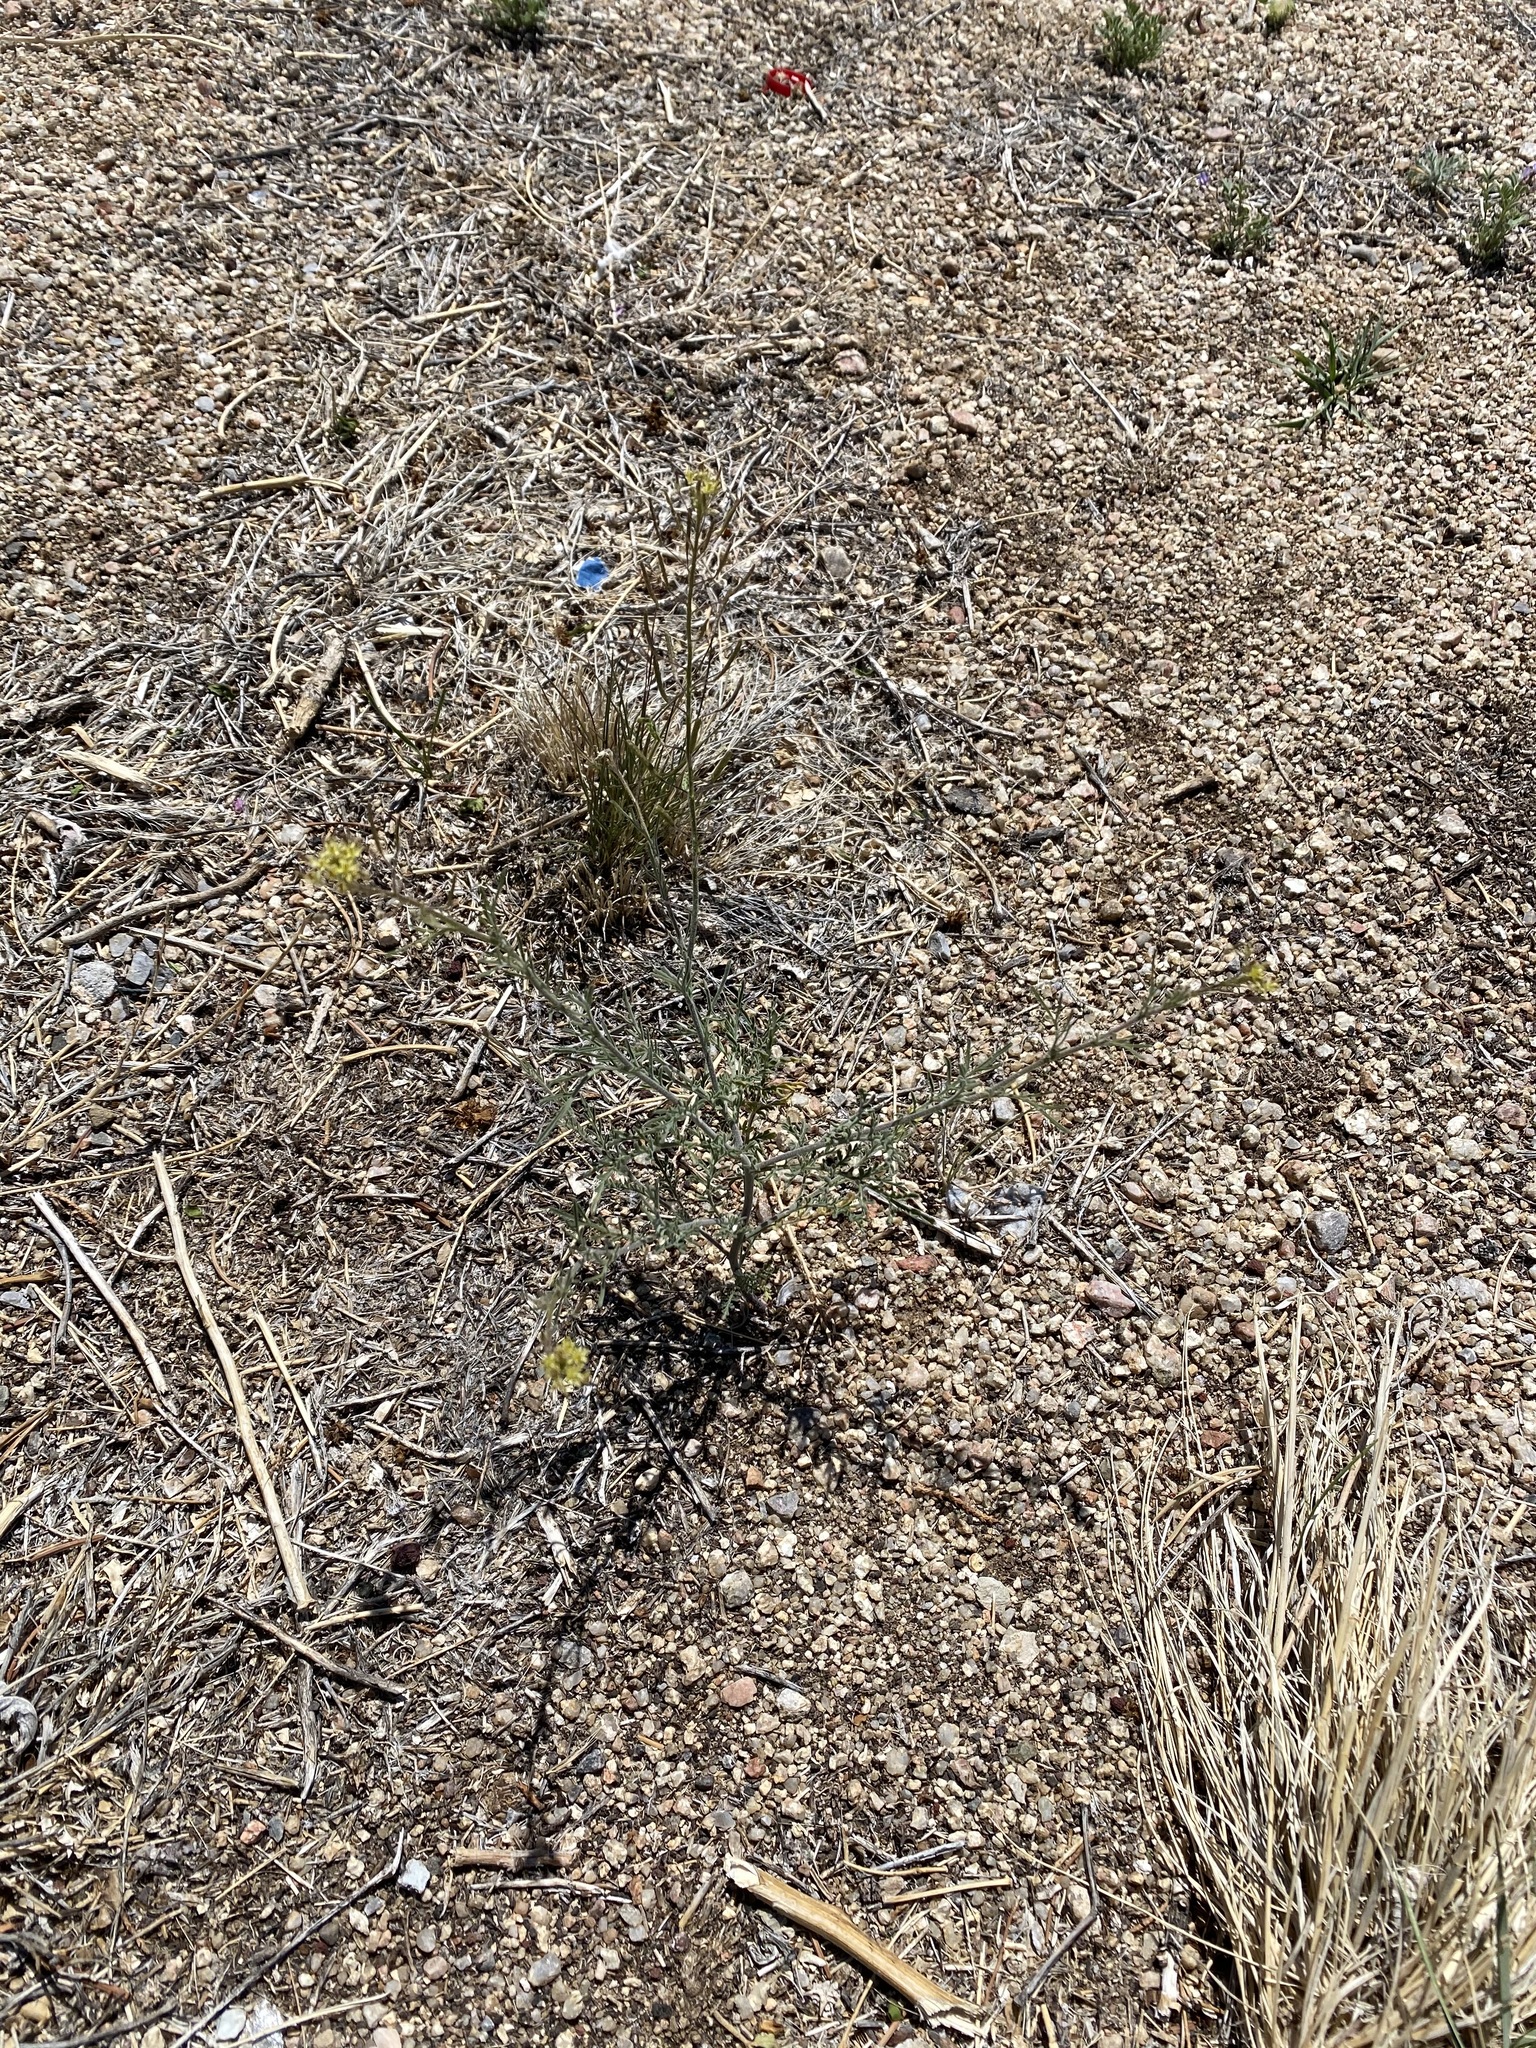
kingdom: Plantae
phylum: Tracheophyta
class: Magnoliopsida
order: Brassicales
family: Brassicaceae
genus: Descurainia
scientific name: Descurainia pinnata
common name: Western tansy mustard
